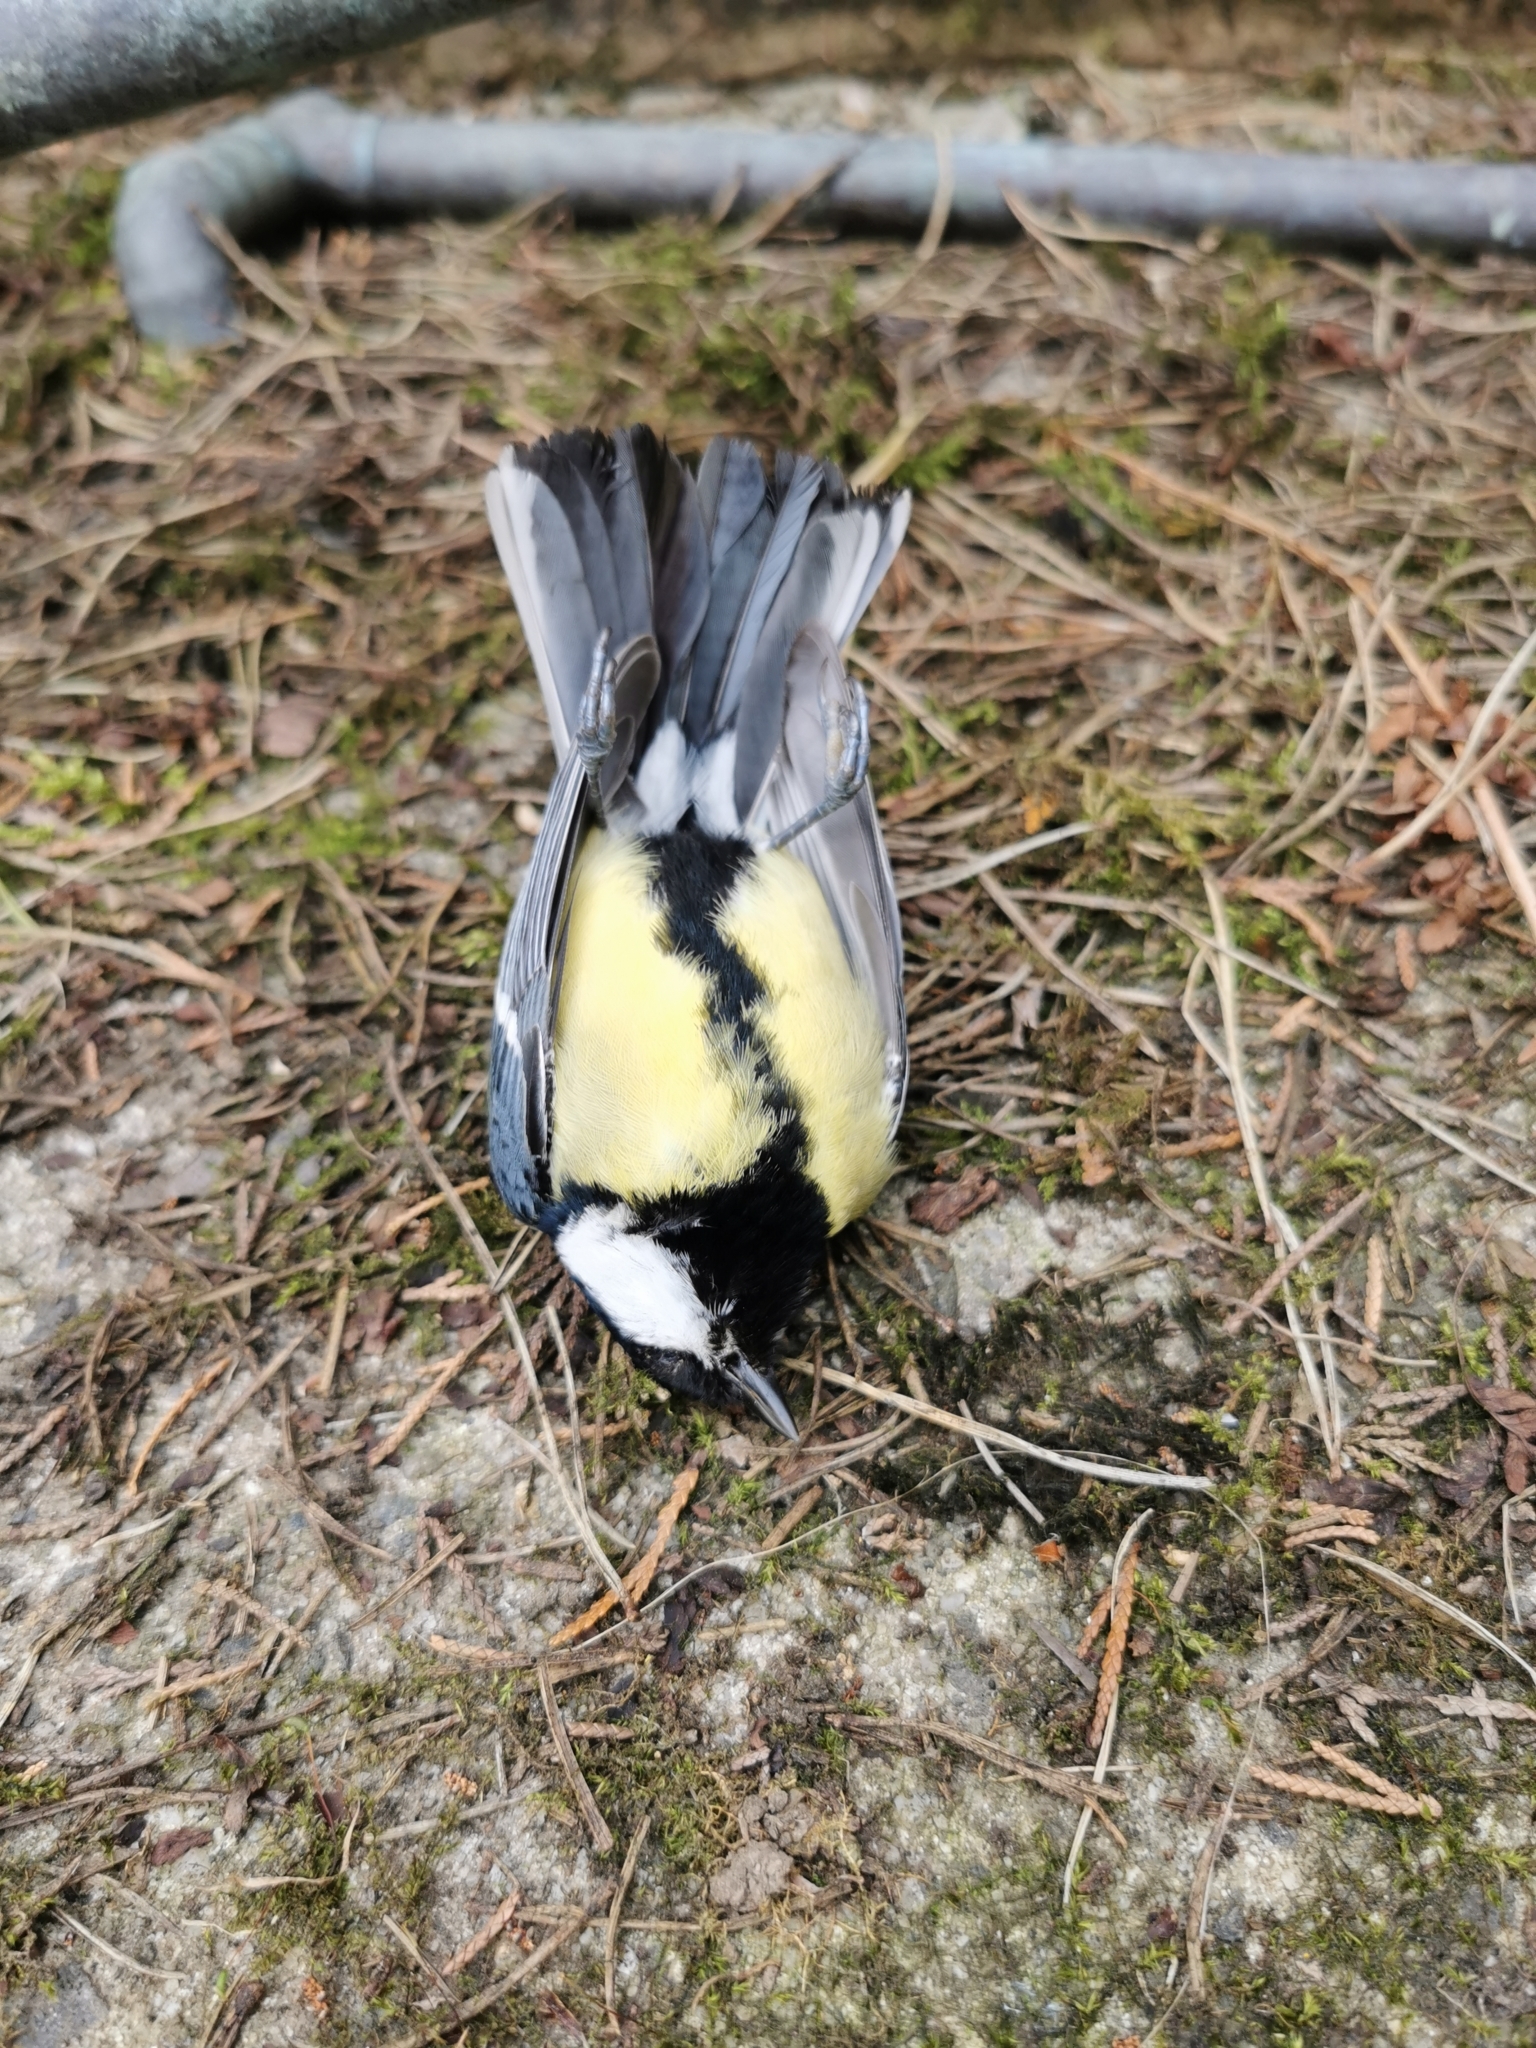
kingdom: Animalia
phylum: Chordata
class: Aves
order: Passeriformes
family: Paridae
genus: Parus
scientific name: Parus major
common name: Great tit
